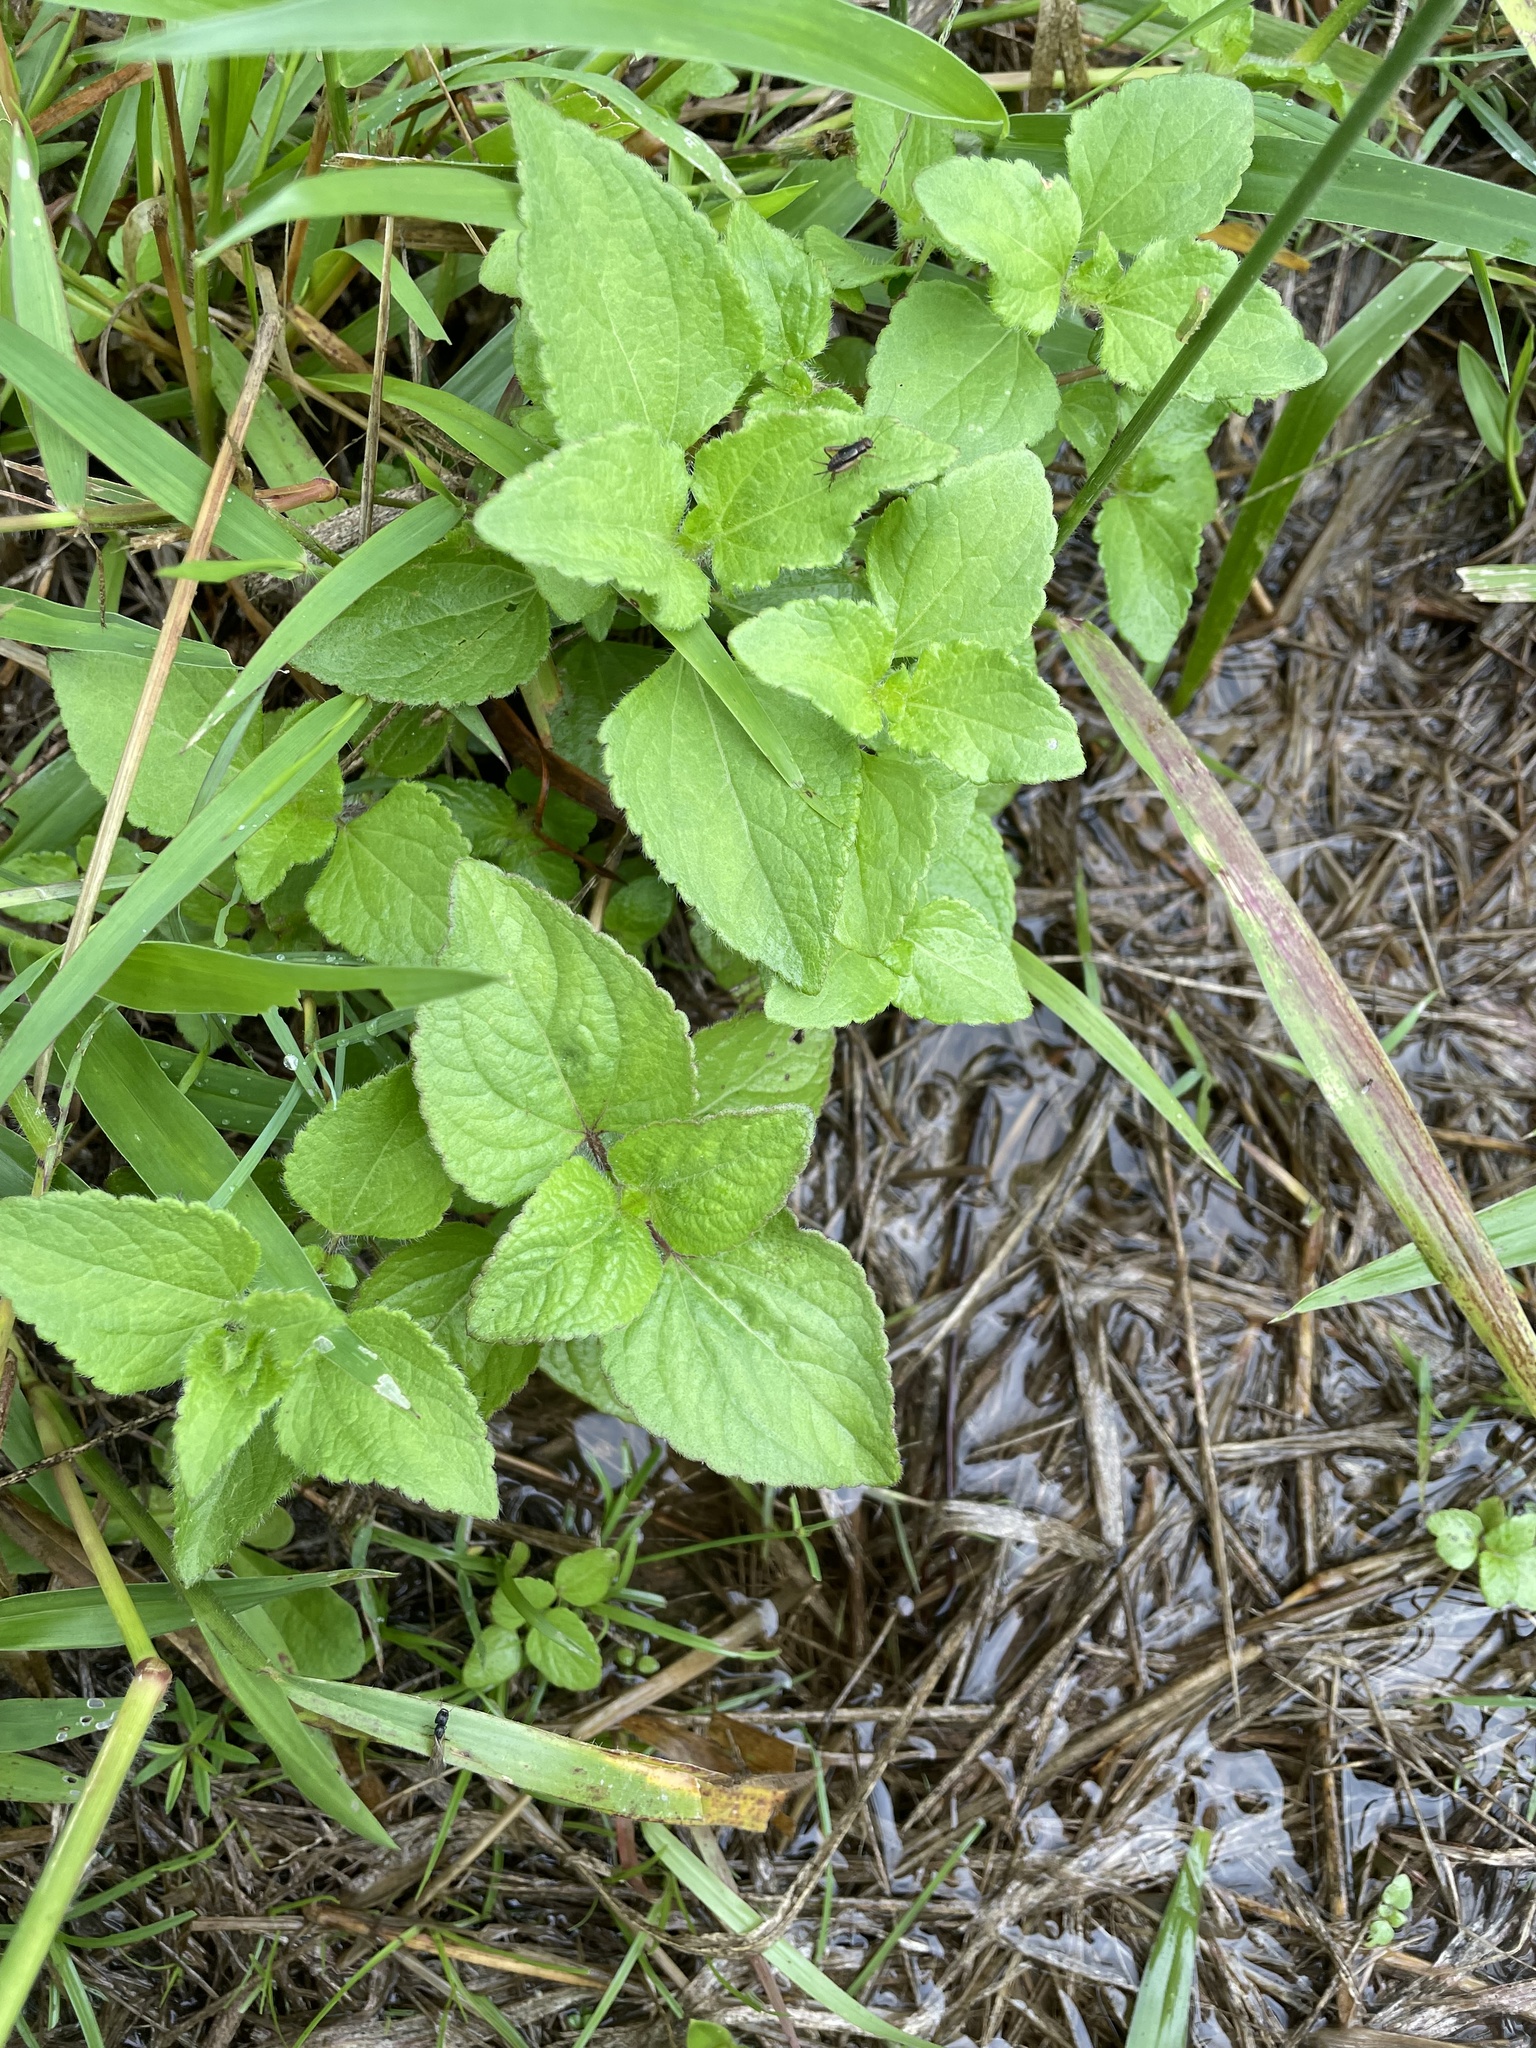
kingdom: Plantae
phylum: Tracheophyta
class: Magnoliopsida
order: Asterales
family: Asteraceae
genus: Ageratum
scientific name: Ageratum houstonianum
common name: Bluemink
